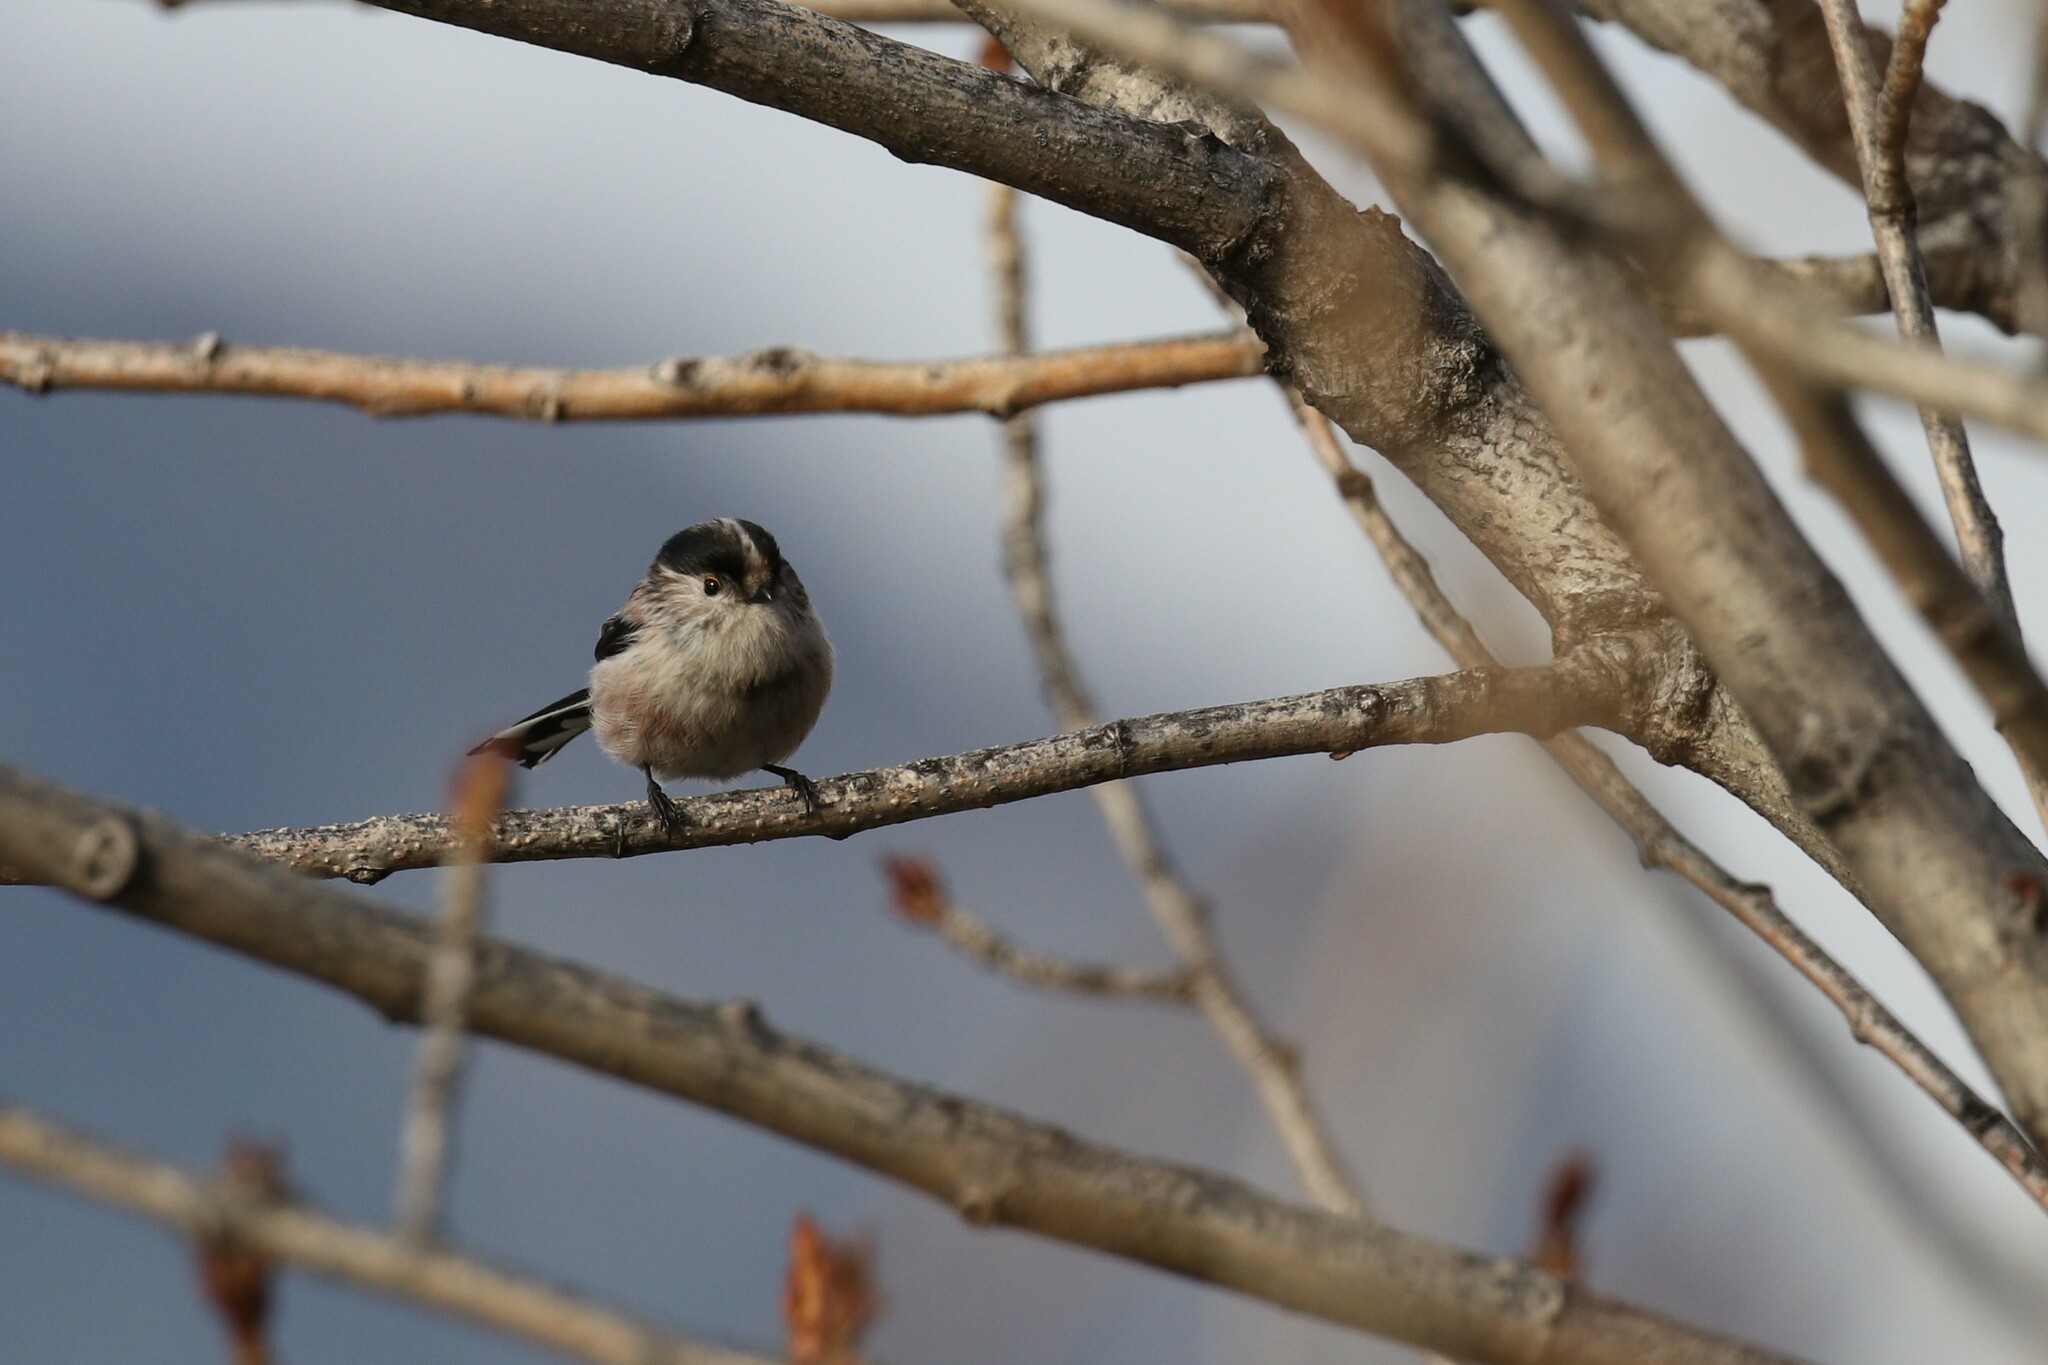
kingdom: Animalia
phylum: Chordata
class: Aves
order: Passeriformes
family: Aegithalidae
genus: Aegithalos
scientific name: Aegithalos caudatus
